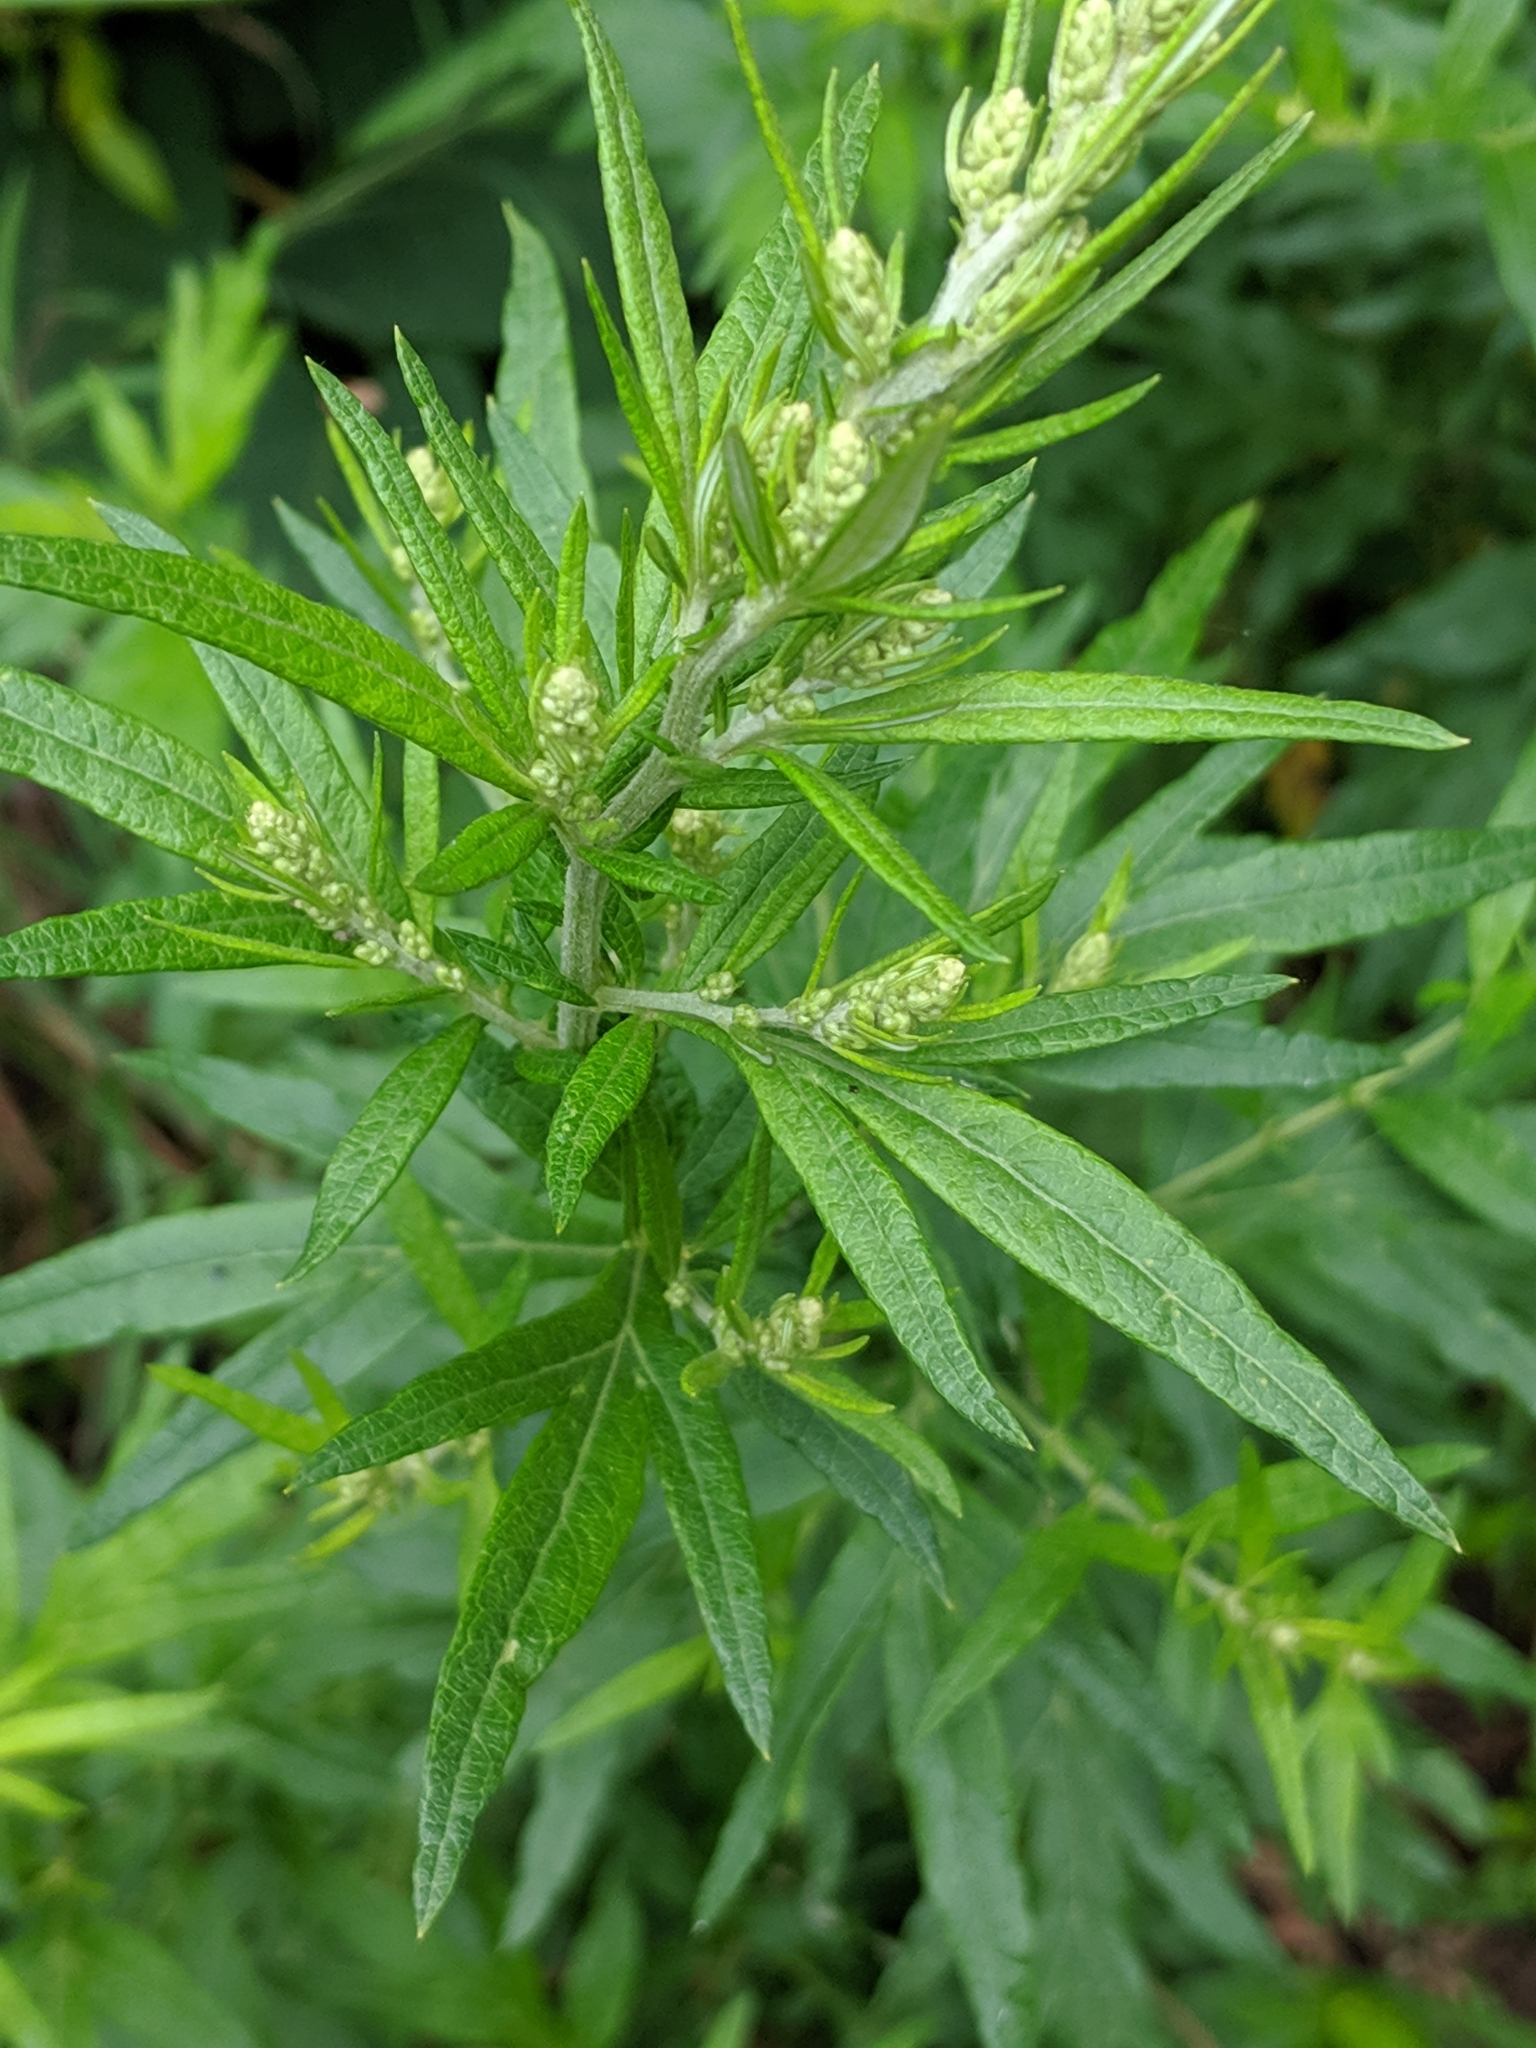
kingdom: Plantae
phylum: Tracheophyta
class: Magnoliopsida
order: Asterales
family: Asteraceae
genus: Artemisia
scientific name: Artemisia vulgaris
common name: Mugwort
